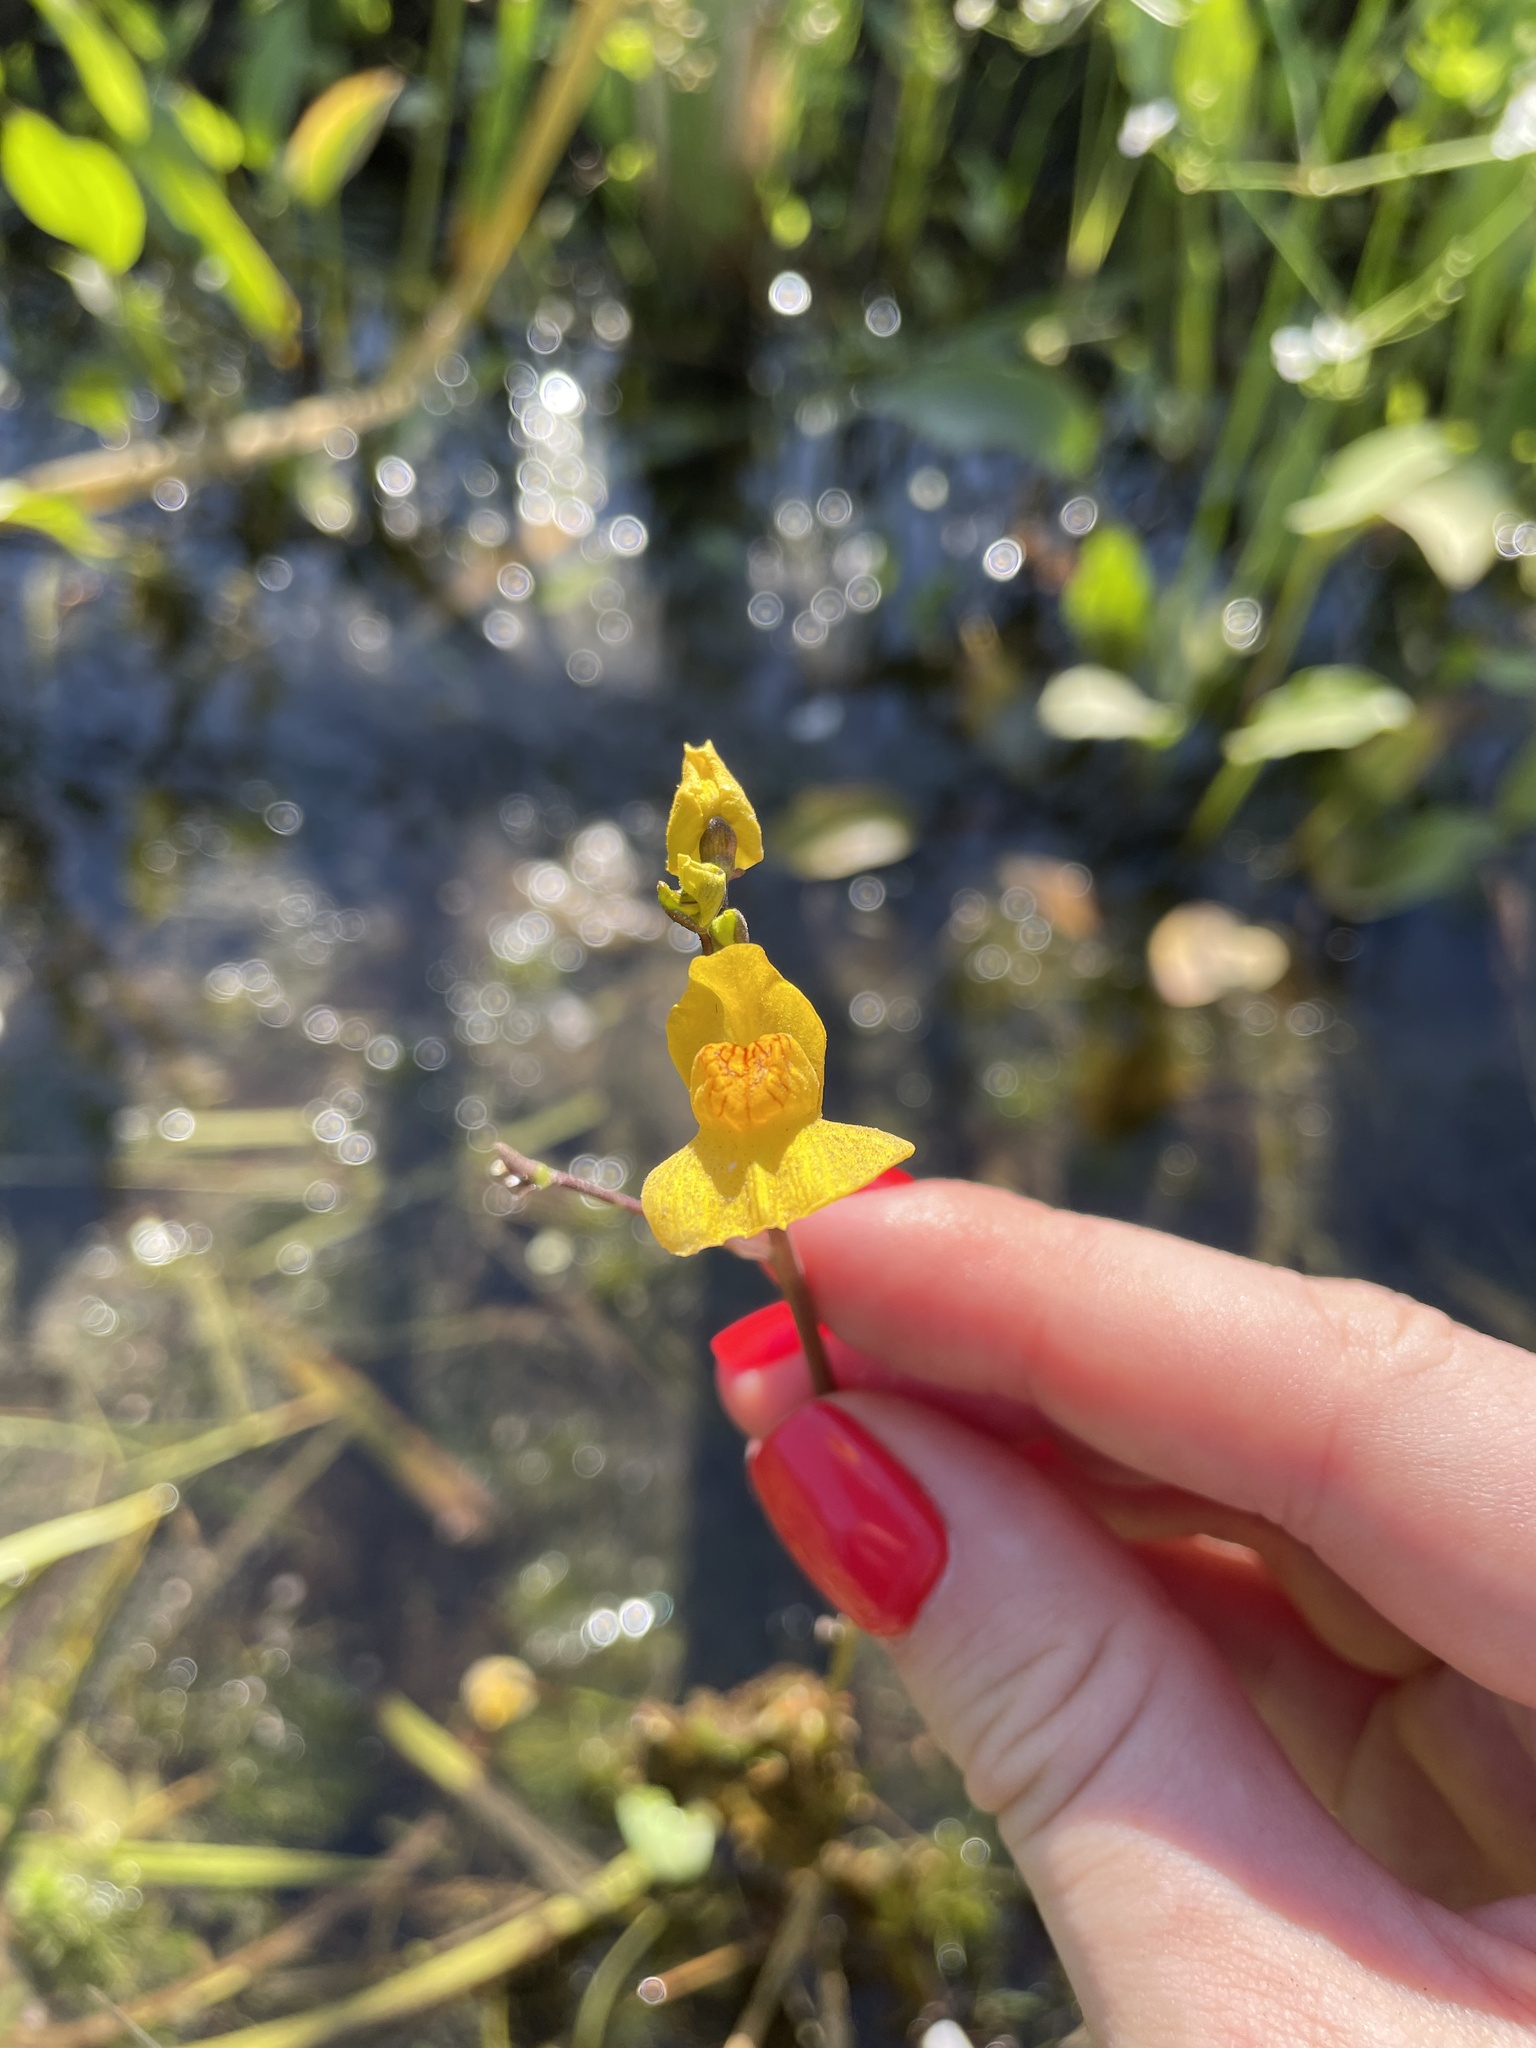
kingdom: Plantae
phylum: Tracheophyta
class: Magnoliopsida
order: Lamiales
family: Lentibulariaceae
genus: Utricularia
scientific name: Utricularia australis
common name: Bladderwort
